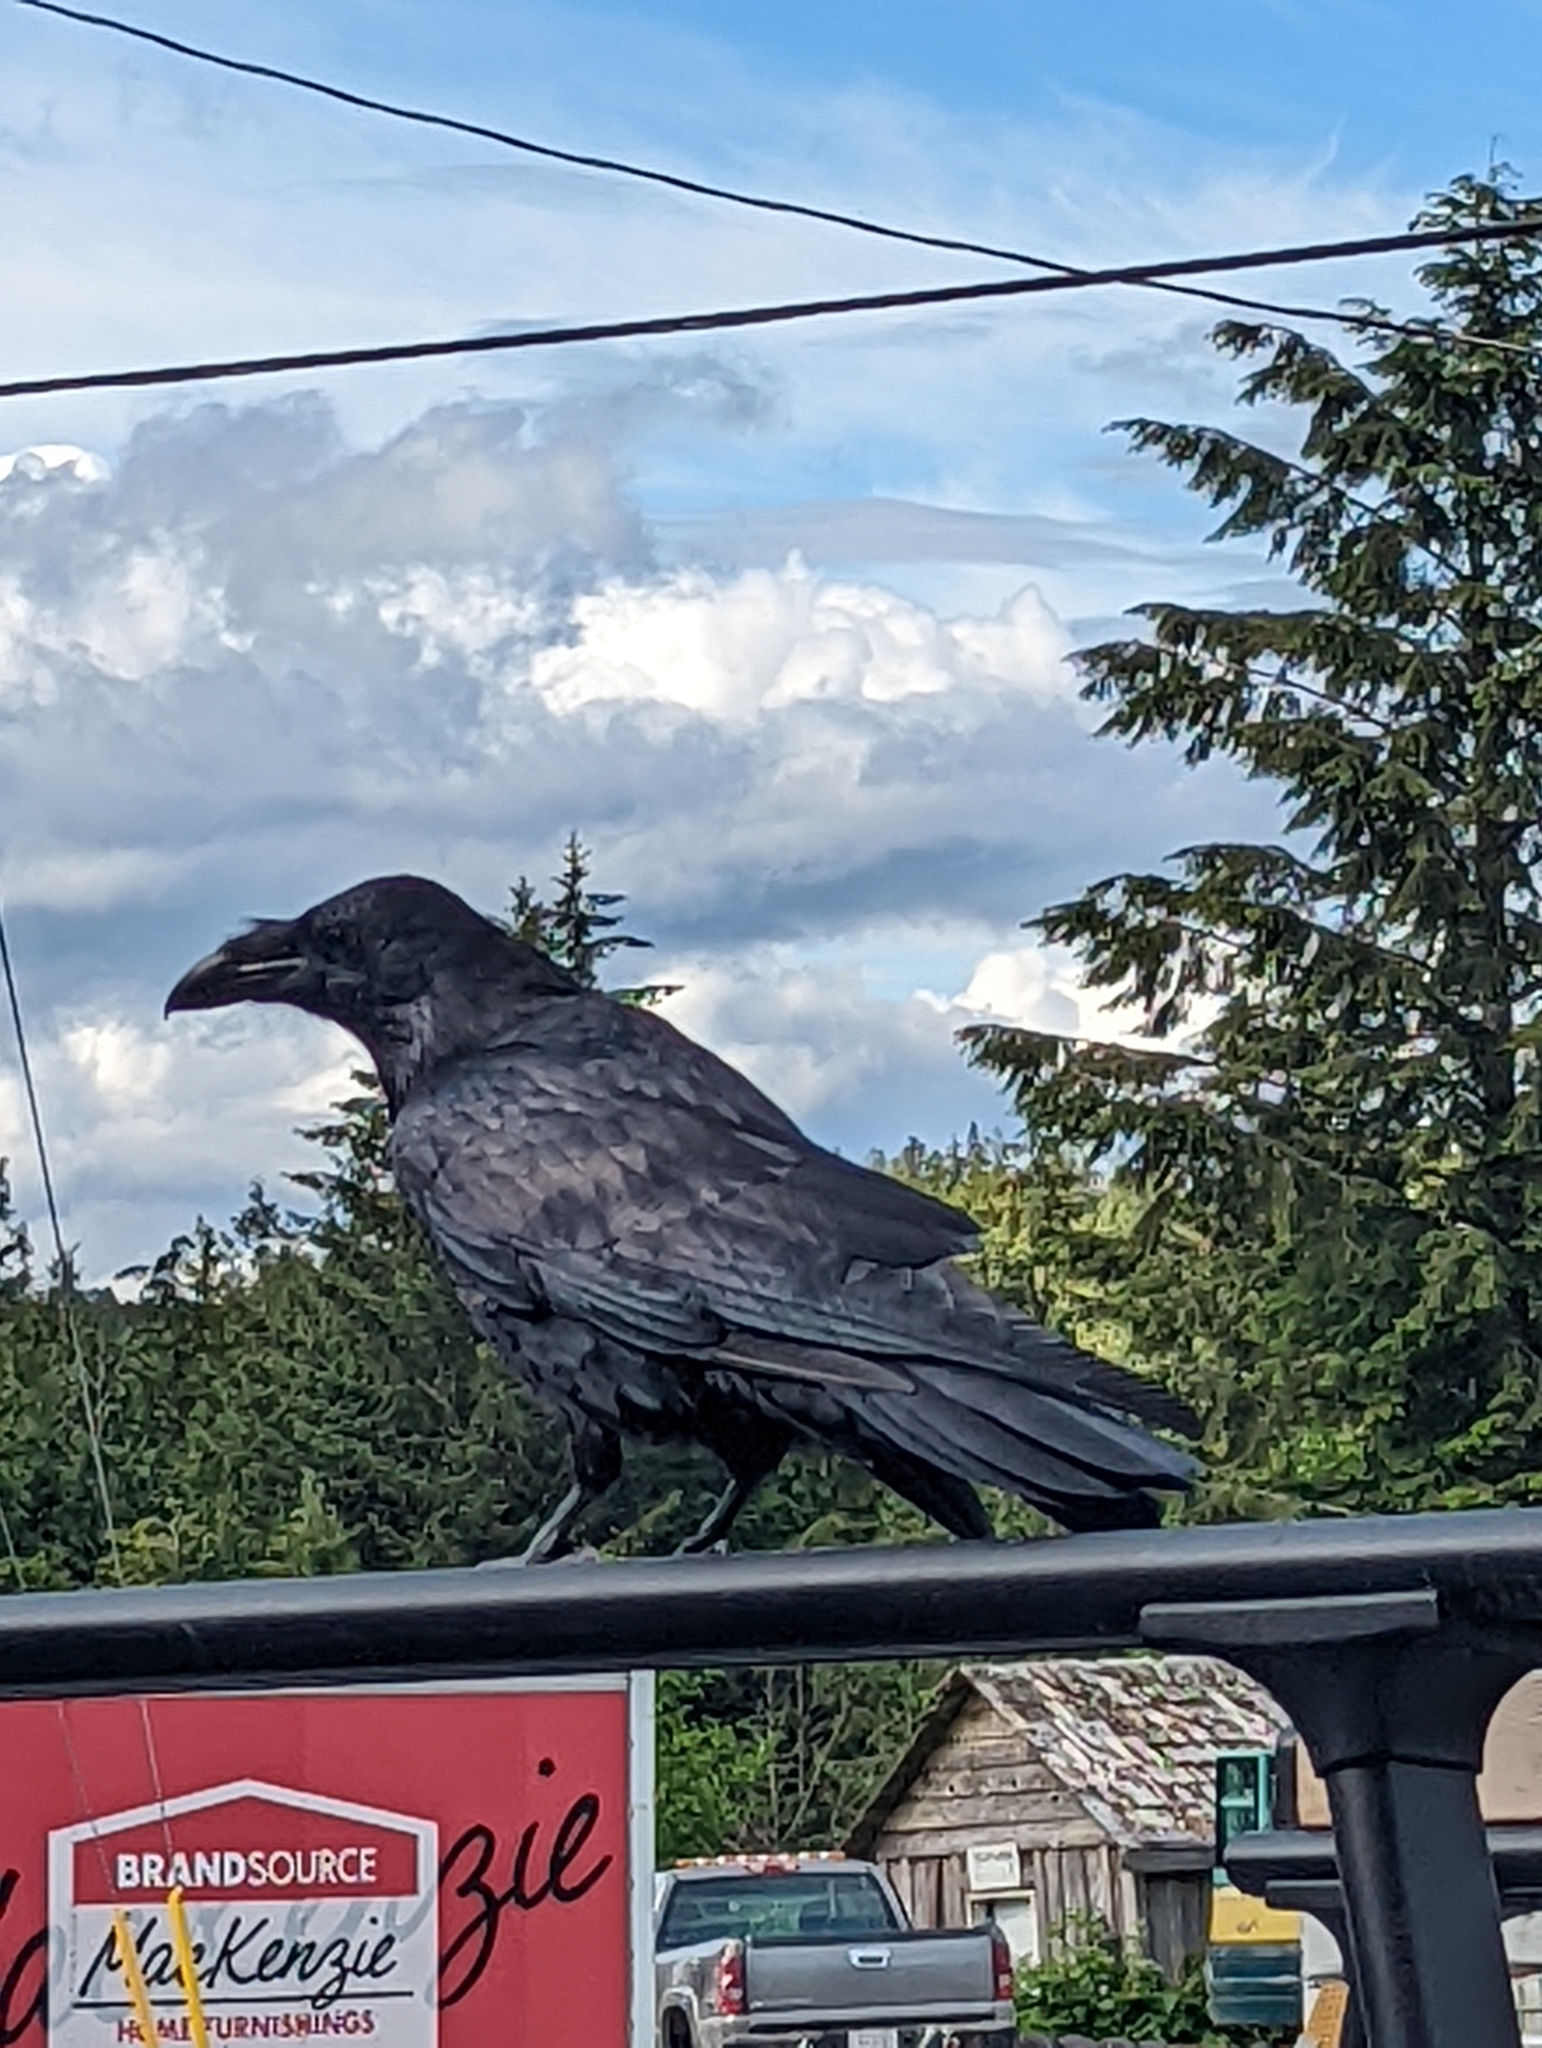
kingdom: Animalia
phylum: Chordata
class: Aves
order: Passeriformes
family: Corvidae
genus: Corvus
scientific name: Corvus corax
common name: Common raven
